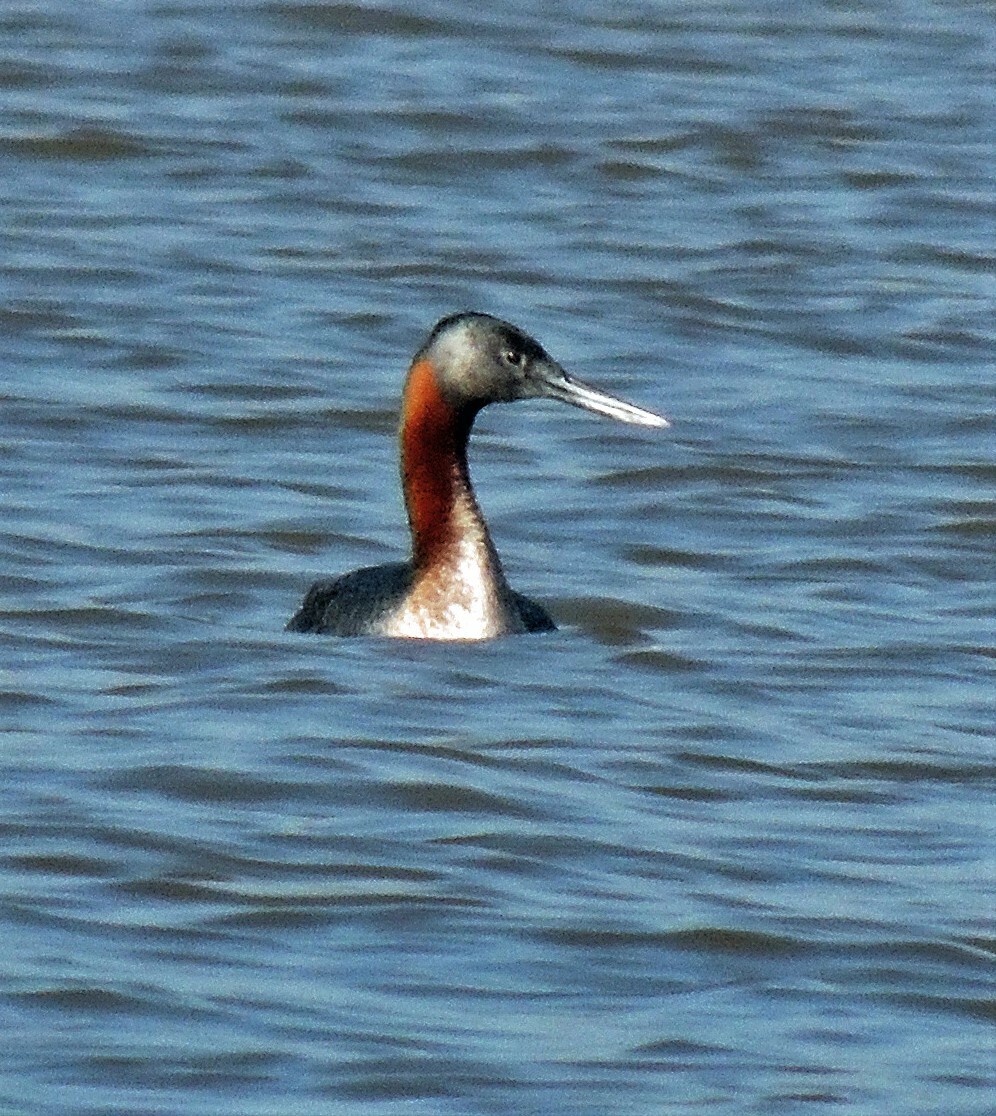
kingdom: Animalia
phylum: Chordata
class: Aves
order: Podicipediformes
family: Podicipedidae
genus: Podiceps
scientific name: Podiceps major
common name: Great grebe
